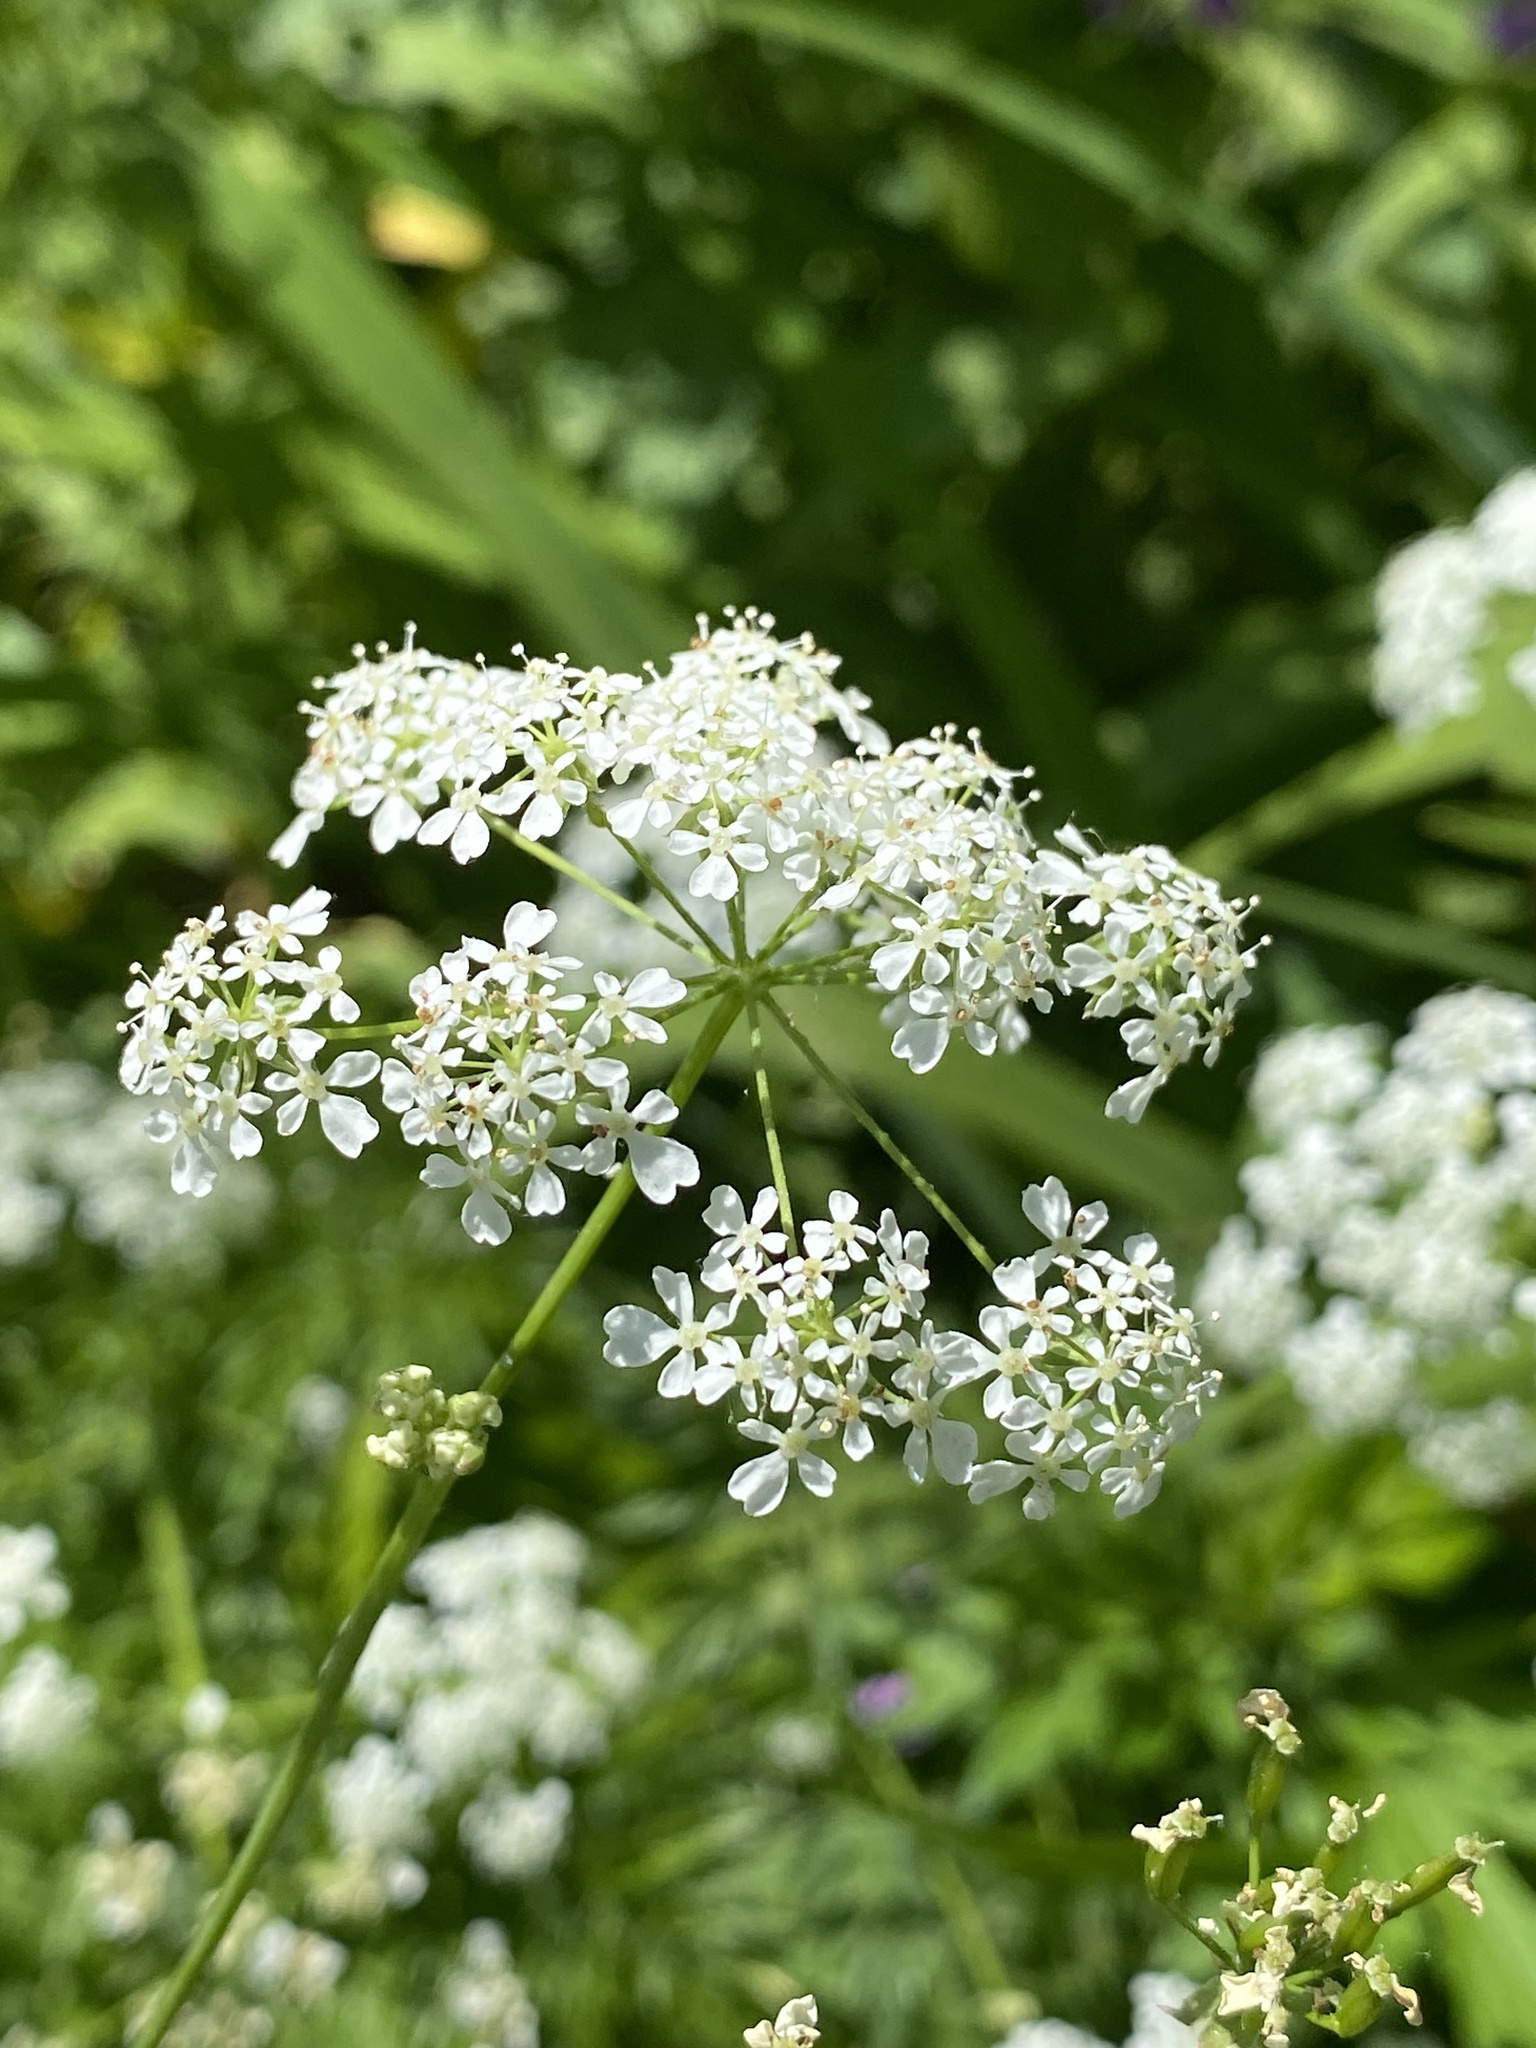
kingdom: Plantae
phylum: Tracheophyta
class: Magnoliopsida
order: Apiales
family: Apiaceae
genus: Anthriscus
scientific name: Anthriscus sylvestris
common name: Cow parsley
